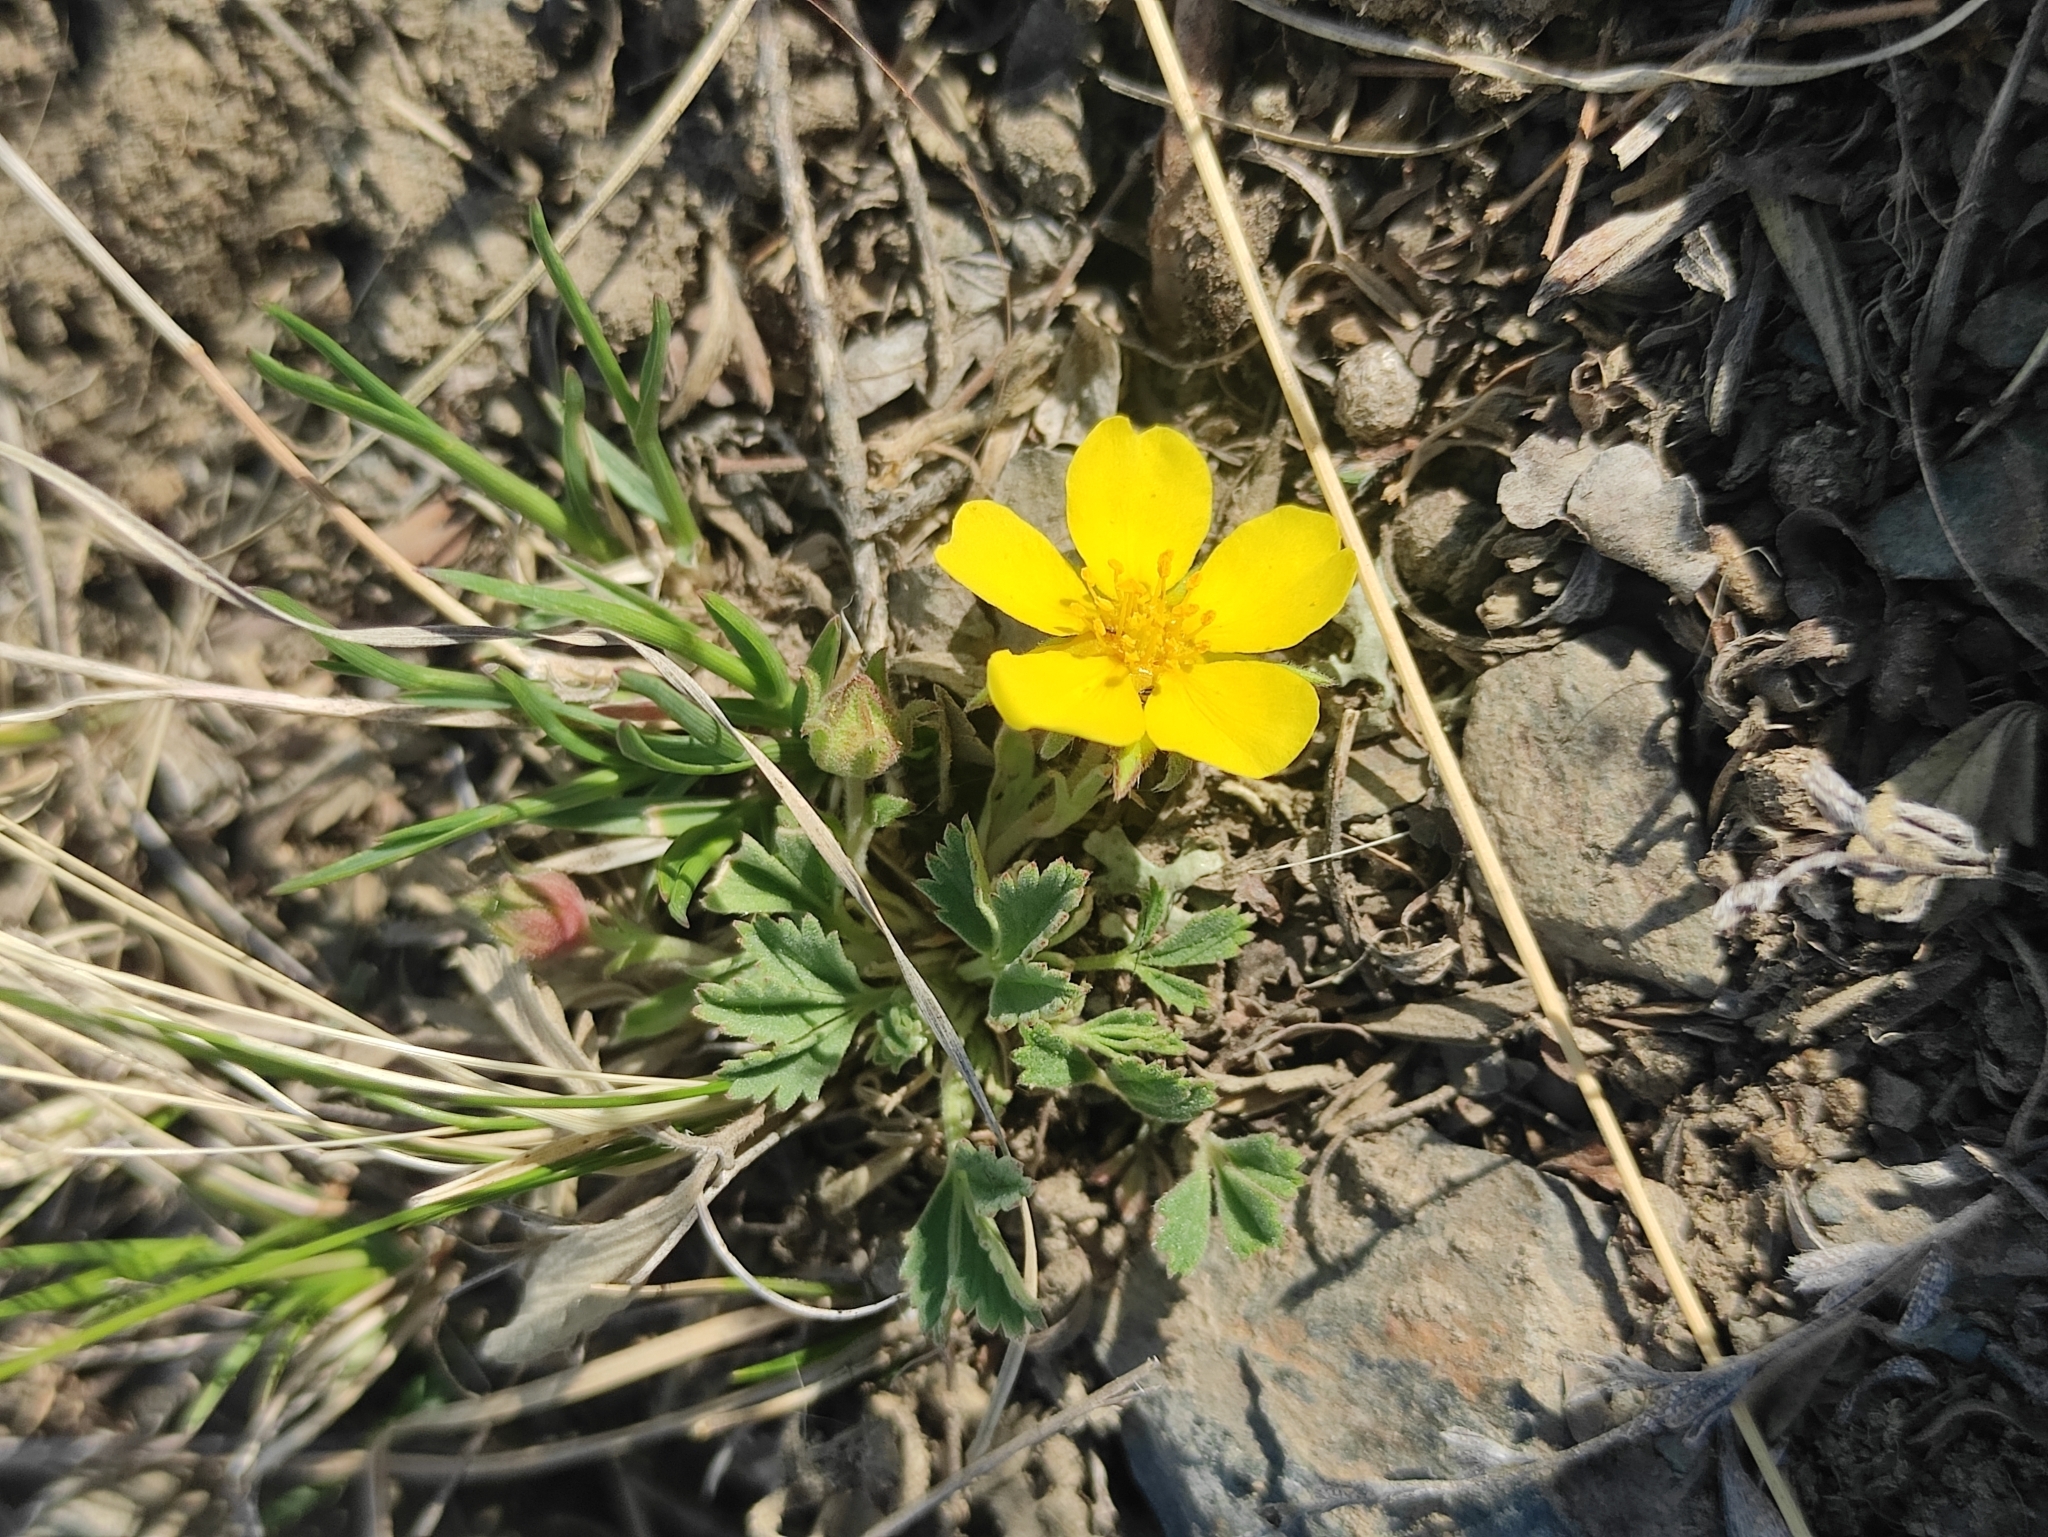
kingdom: Plantae
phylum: Tracheophyta
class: Magnoliopsida
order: Rosales
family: Rosaceae
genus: Potentilla
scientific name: Potentilla acaulis
